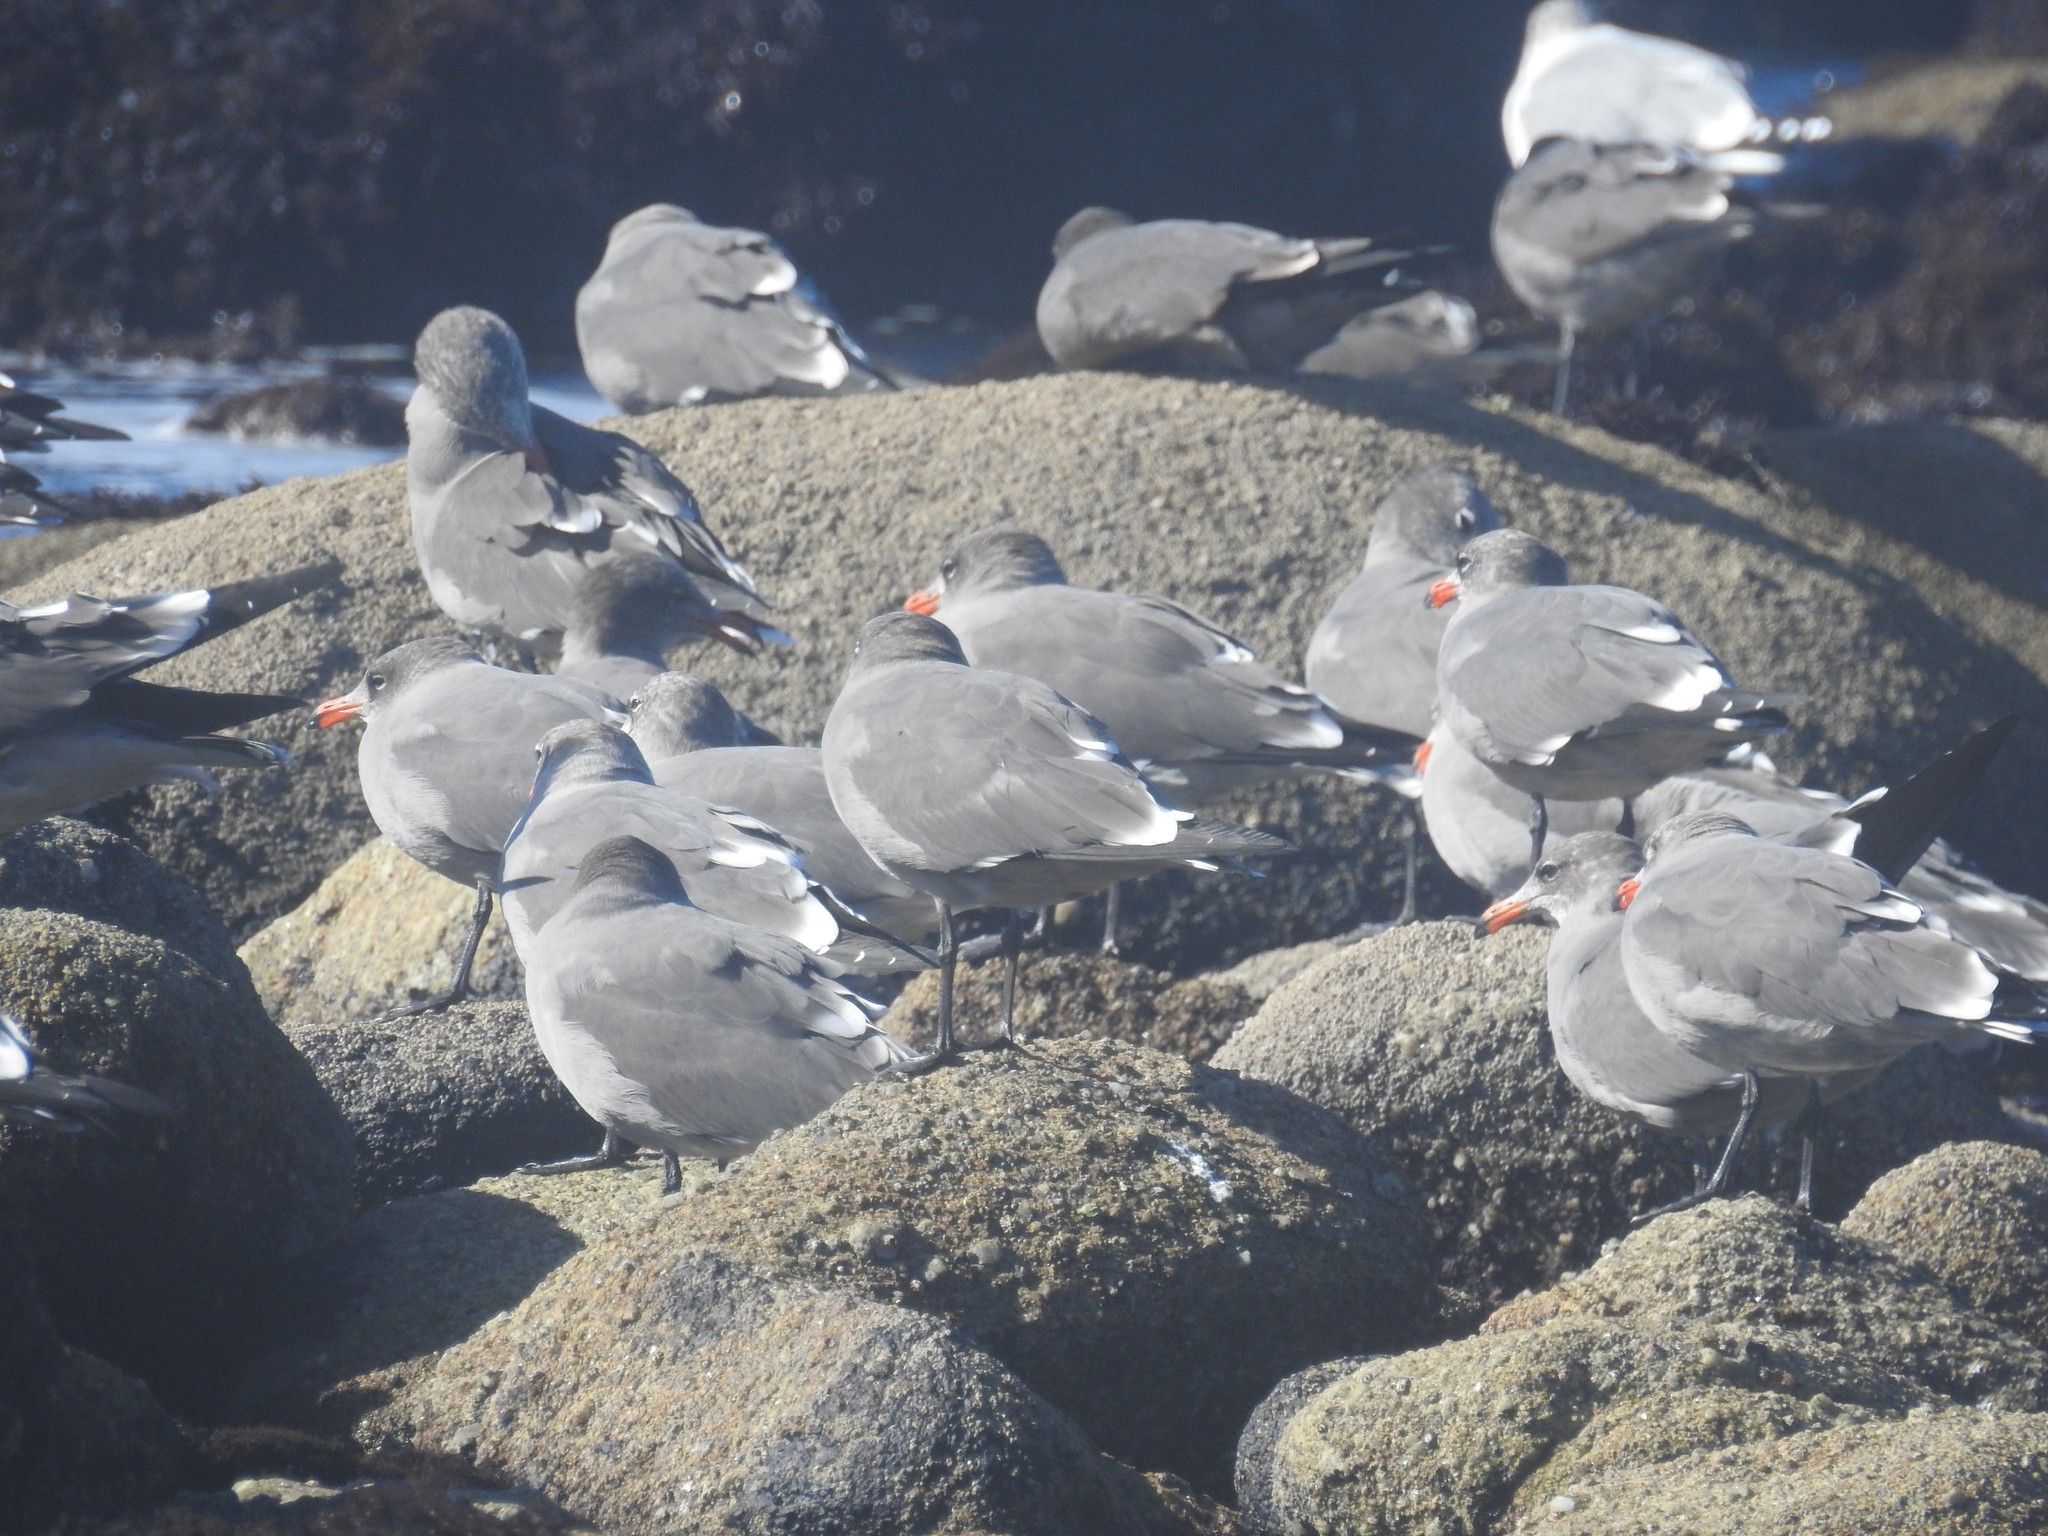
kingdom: Animalia
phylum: Chordata
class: Aves
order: Charadriiformes
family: Laridae
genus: Larus
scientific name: Larus heermanni
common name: Heermann's gull
